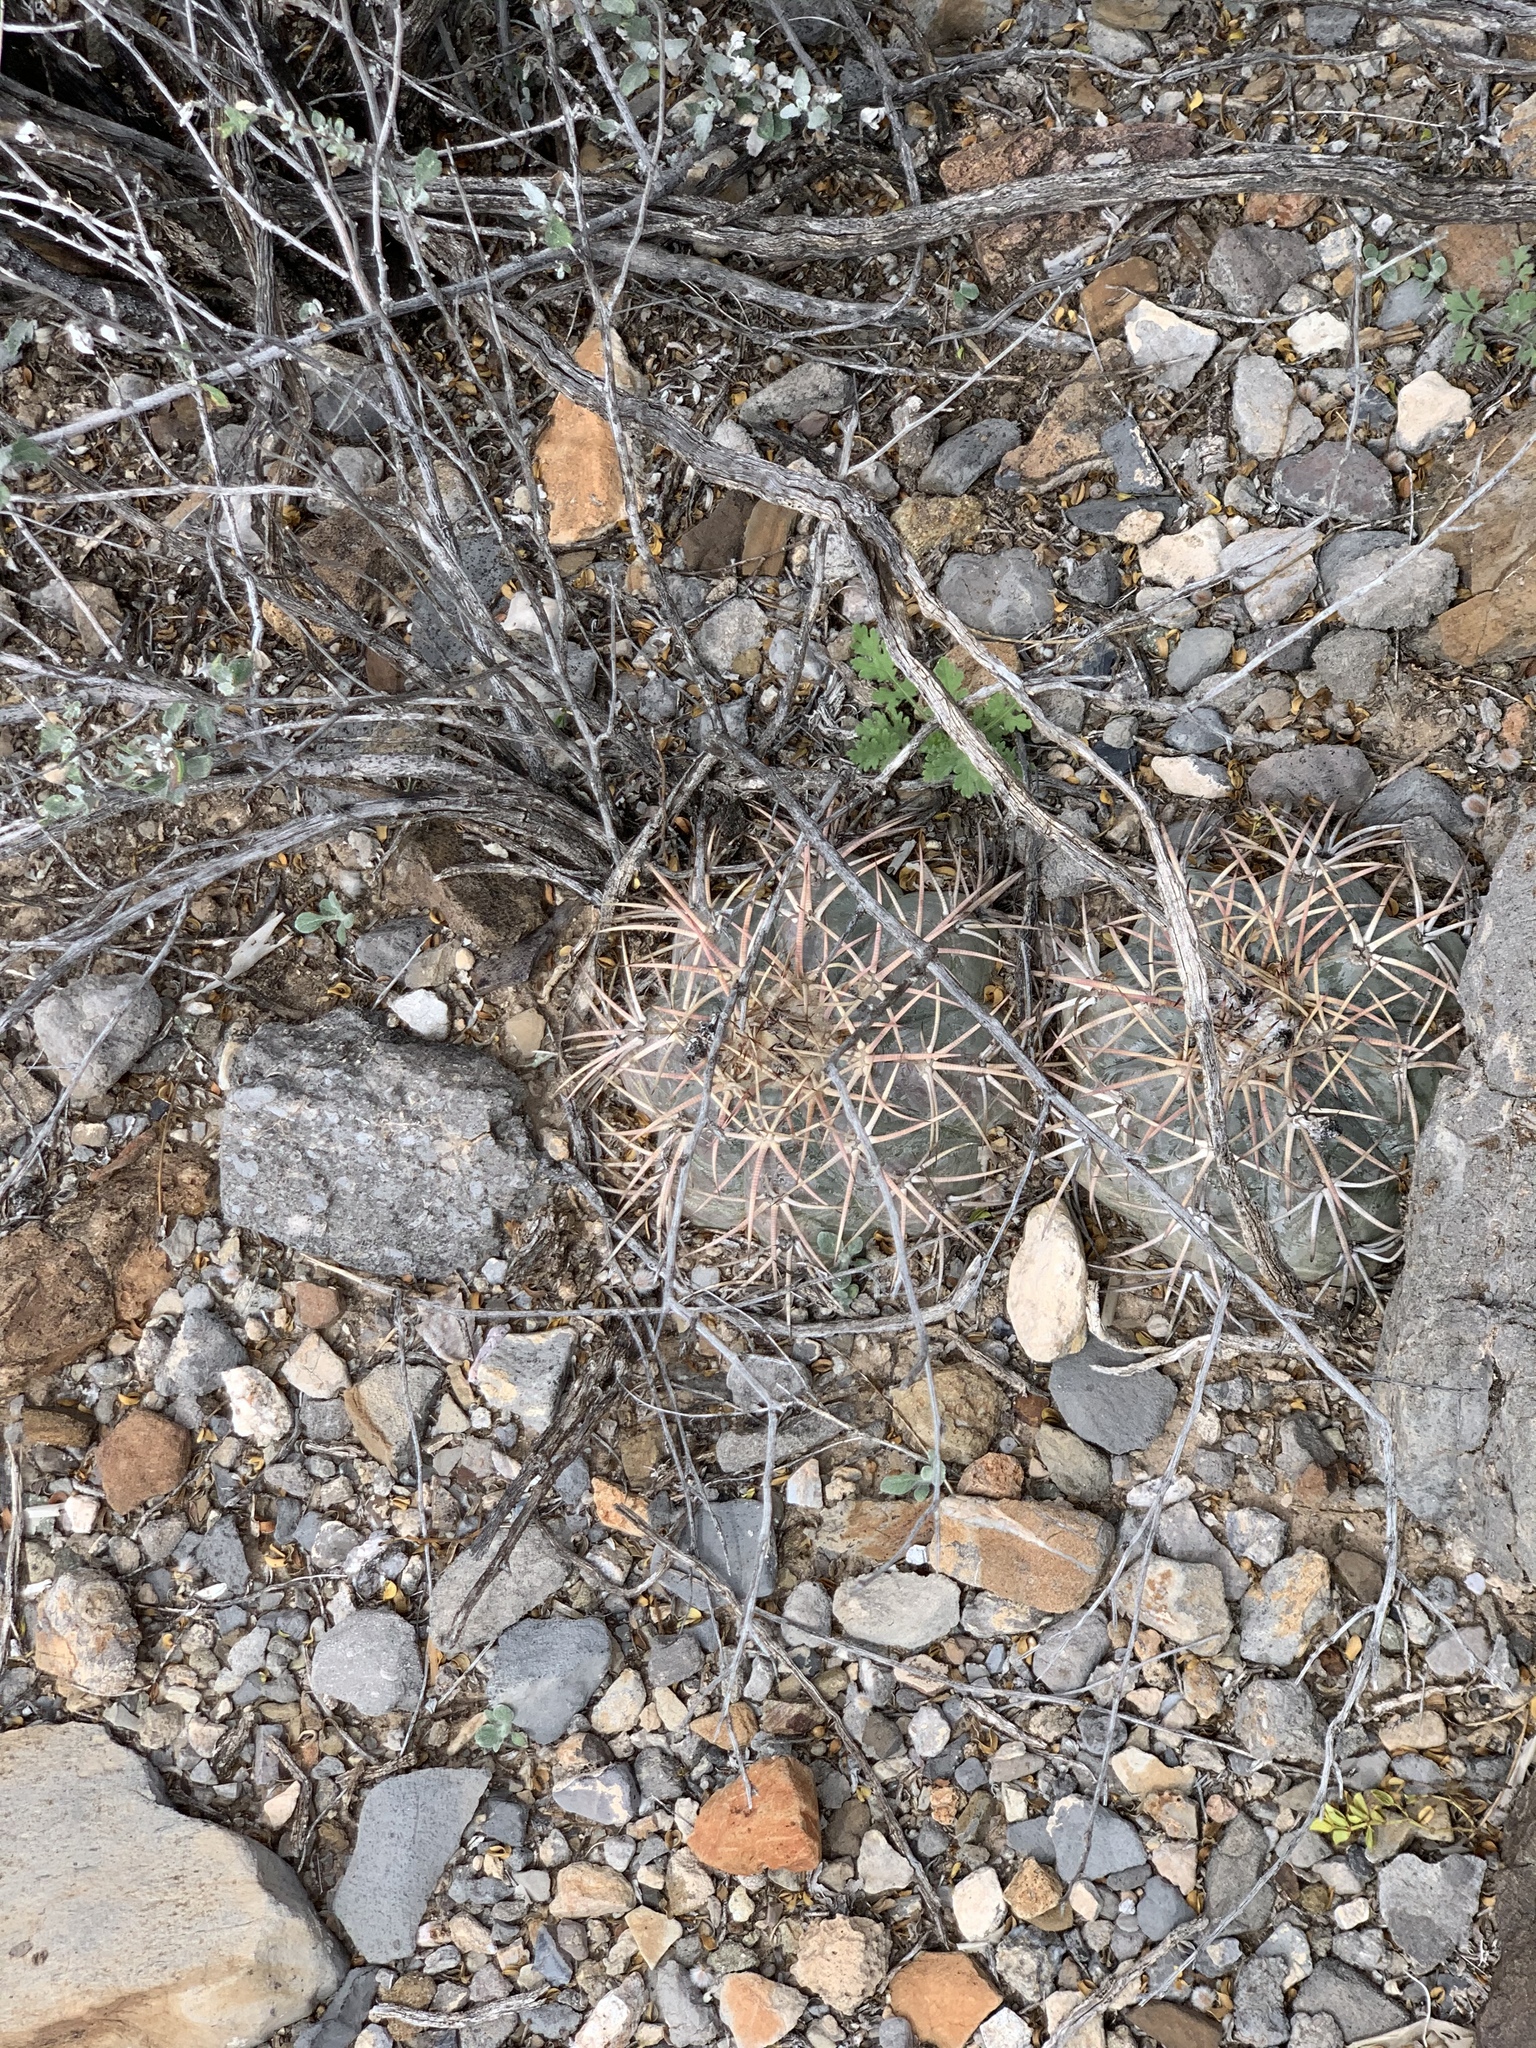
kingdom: Plantae
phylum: Tracheophyta
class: Magnoliopsida
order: Caryophyllales
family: Cactaceae
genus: Echinocactus
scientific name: Echinocactus horizonthalonius
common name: Devilshead
